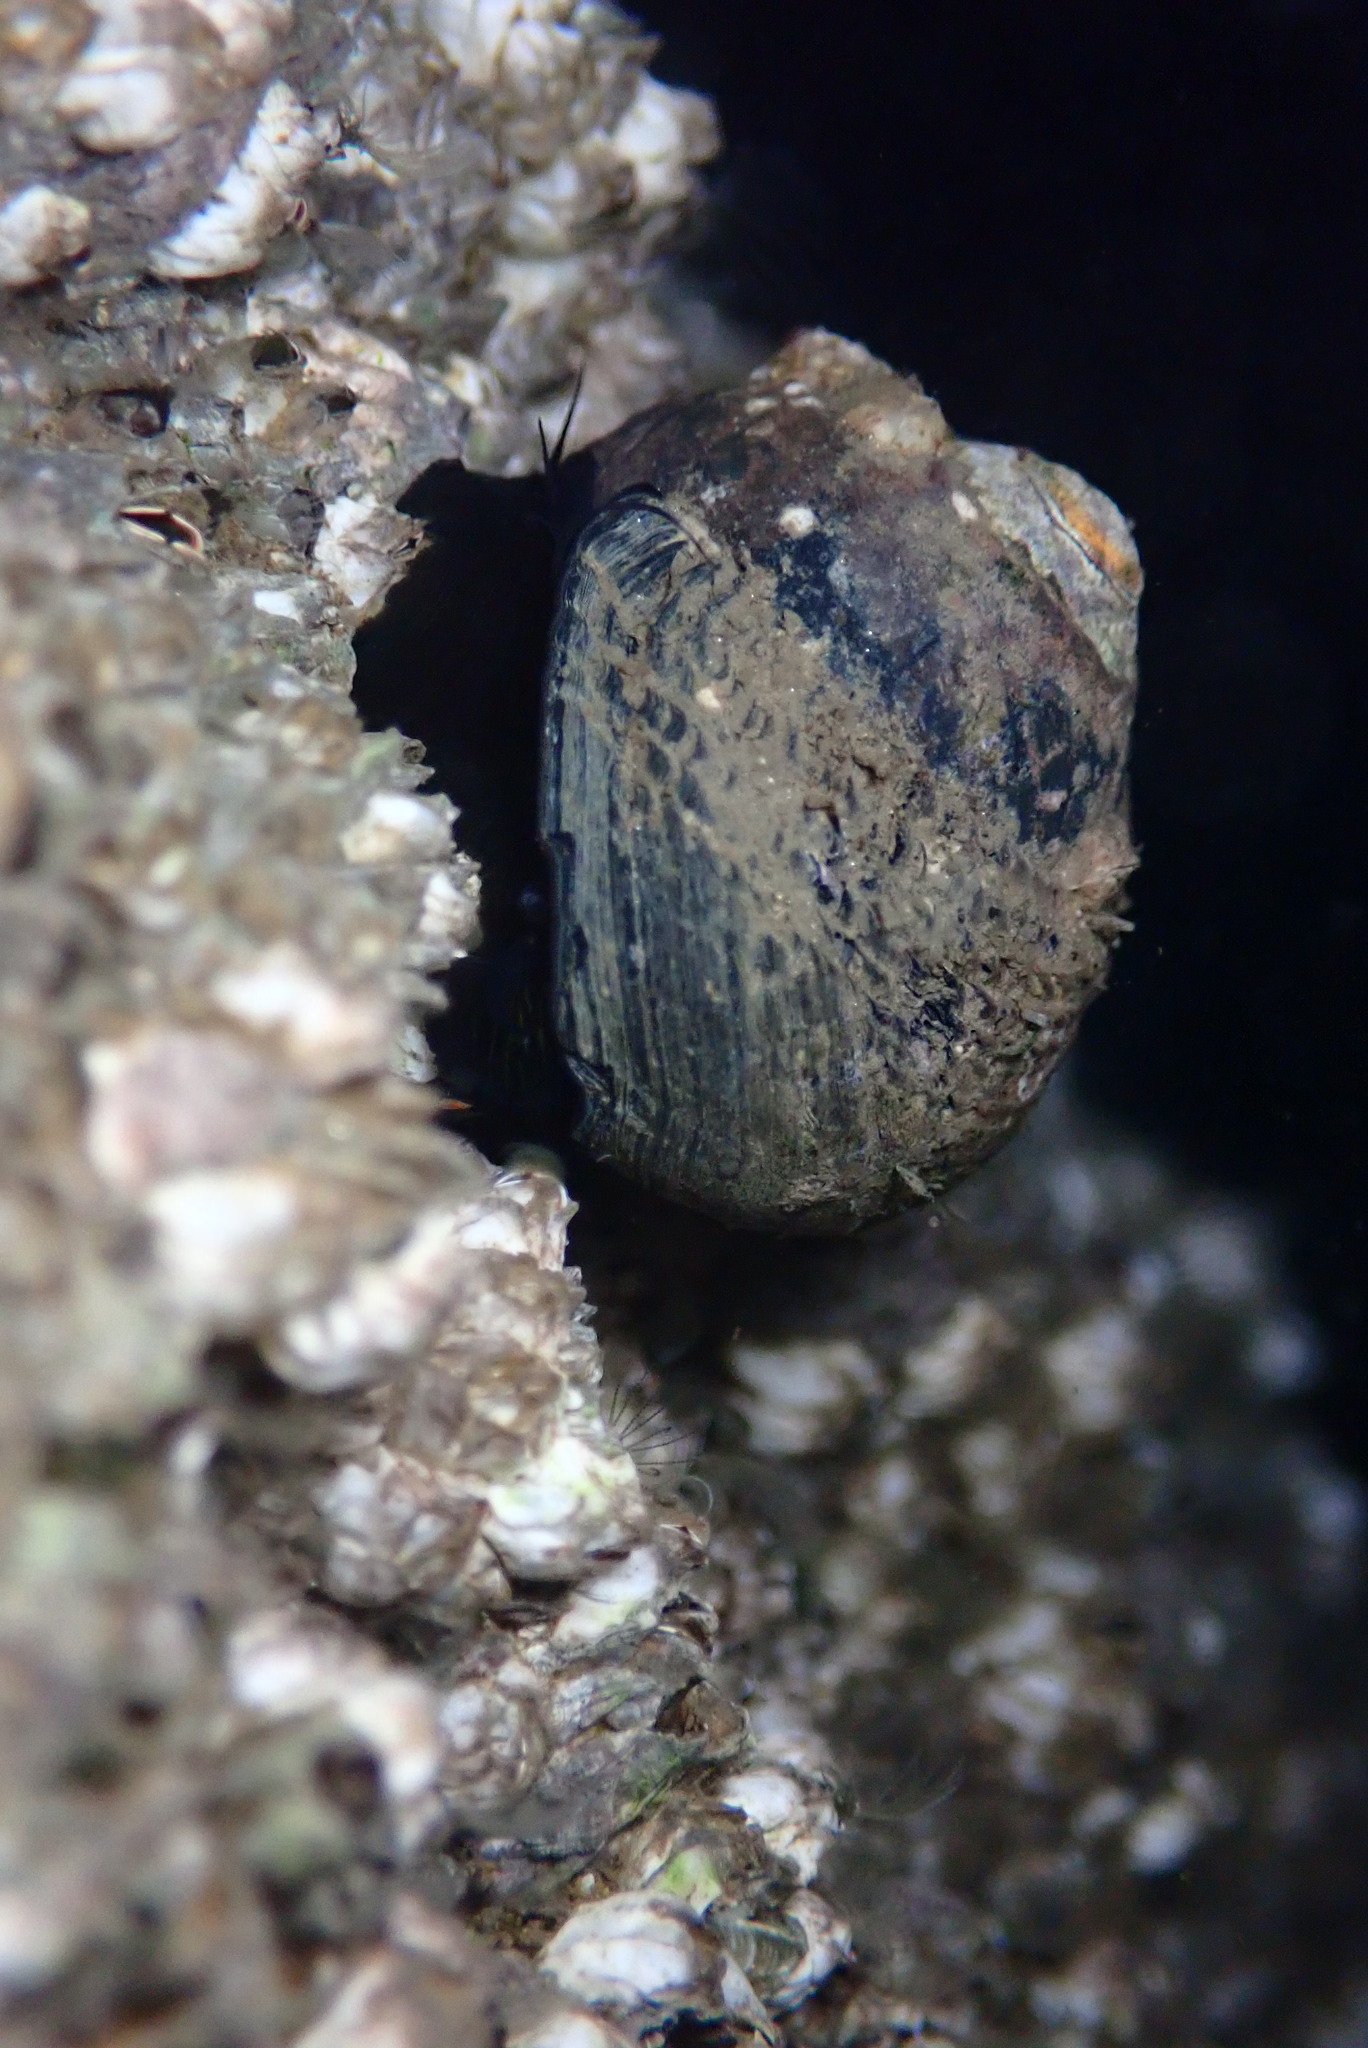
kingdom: Animalia
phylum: Mollusca
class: Gastropoda
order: Trochida
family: Tegulidae
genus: Tegula
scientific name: Tegula funebralis
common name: Black tegula
